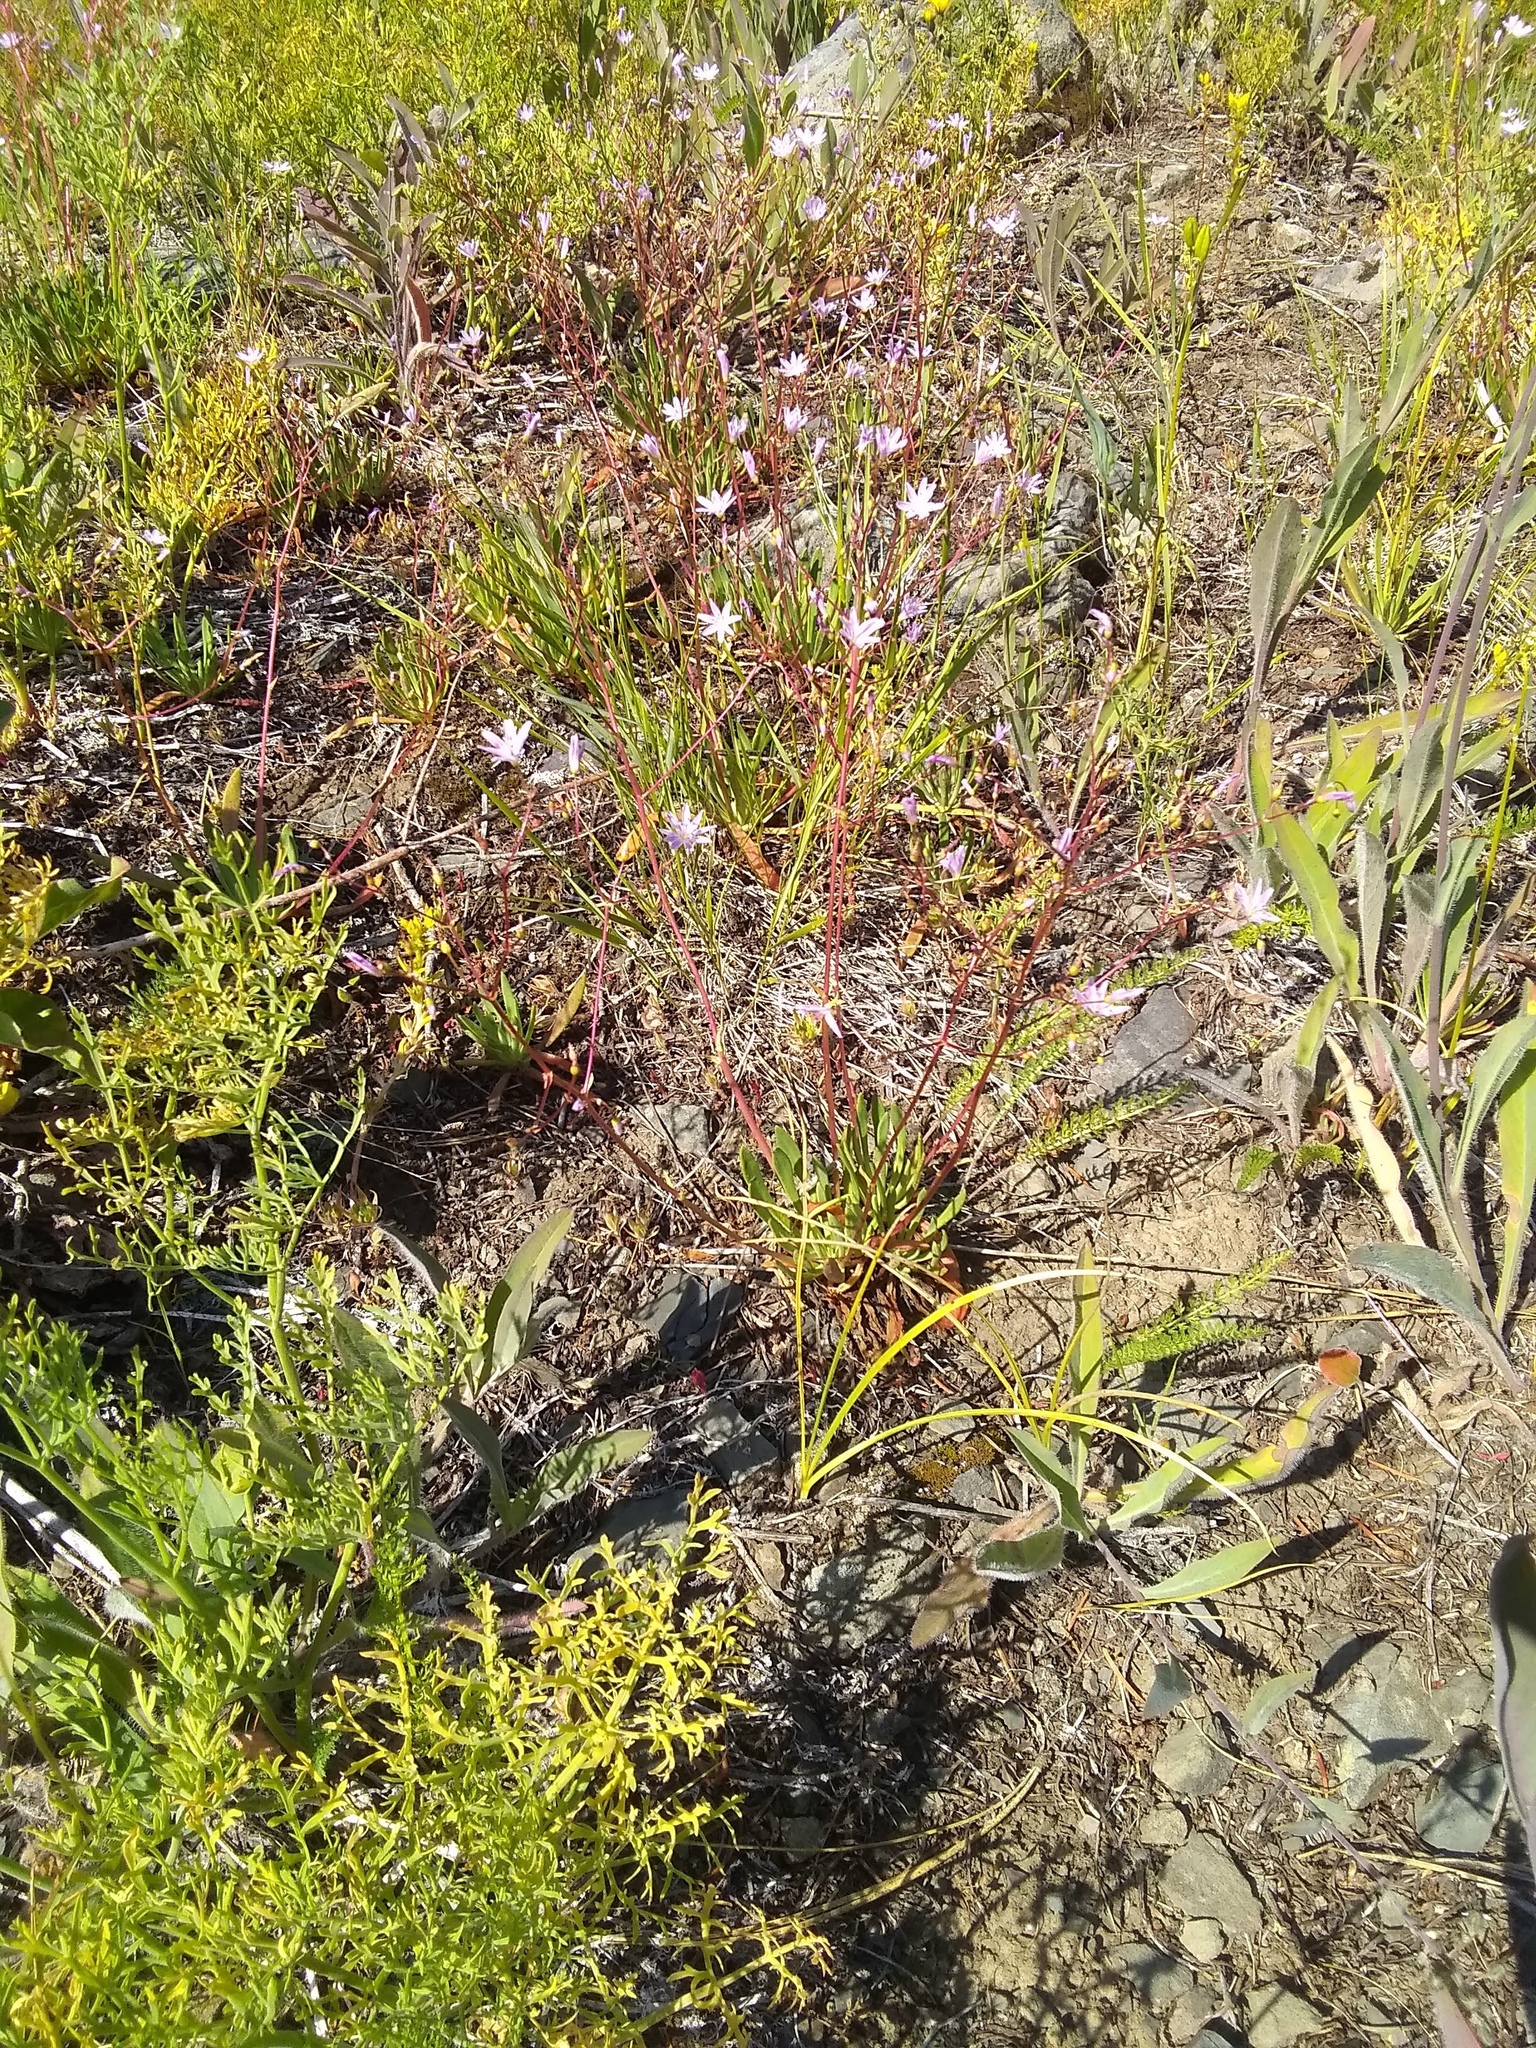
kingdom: Plantae
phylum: Tracheophyta
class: Magnoliopsida
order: Caryophyllales
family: Montiaceae
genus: Lewisia
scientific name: Lewisia columbiana
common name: Columbia lewisia
